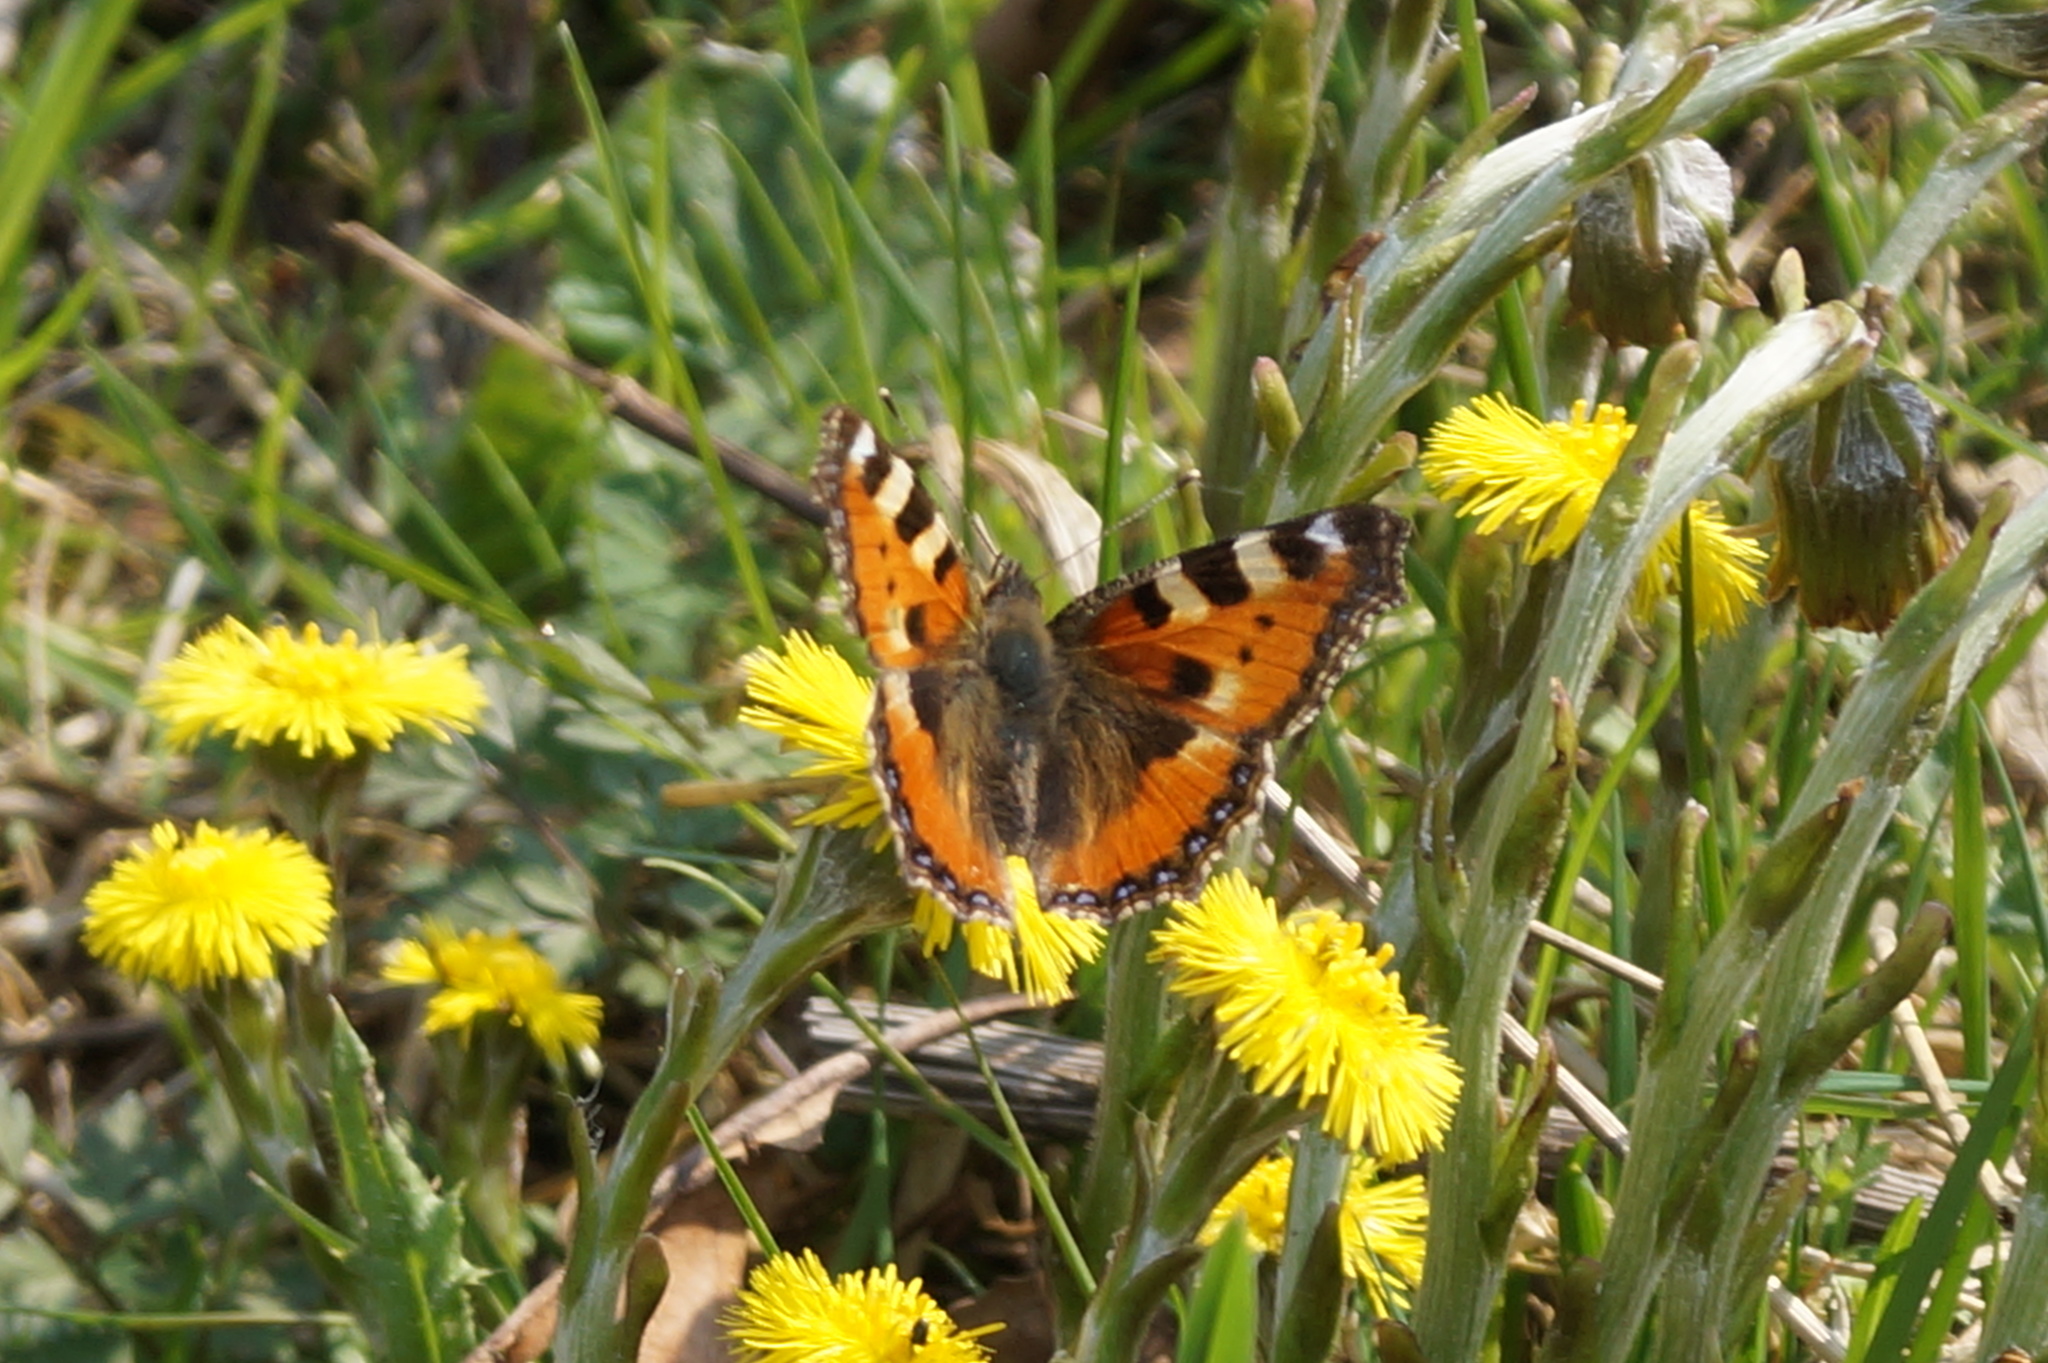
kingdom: Animalia
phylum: Arthropoda
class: Insecta
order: Lepidoptera
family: Nymphalidae
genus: Aglais
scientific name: Aglais urticae
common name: Small tortoiseshell
